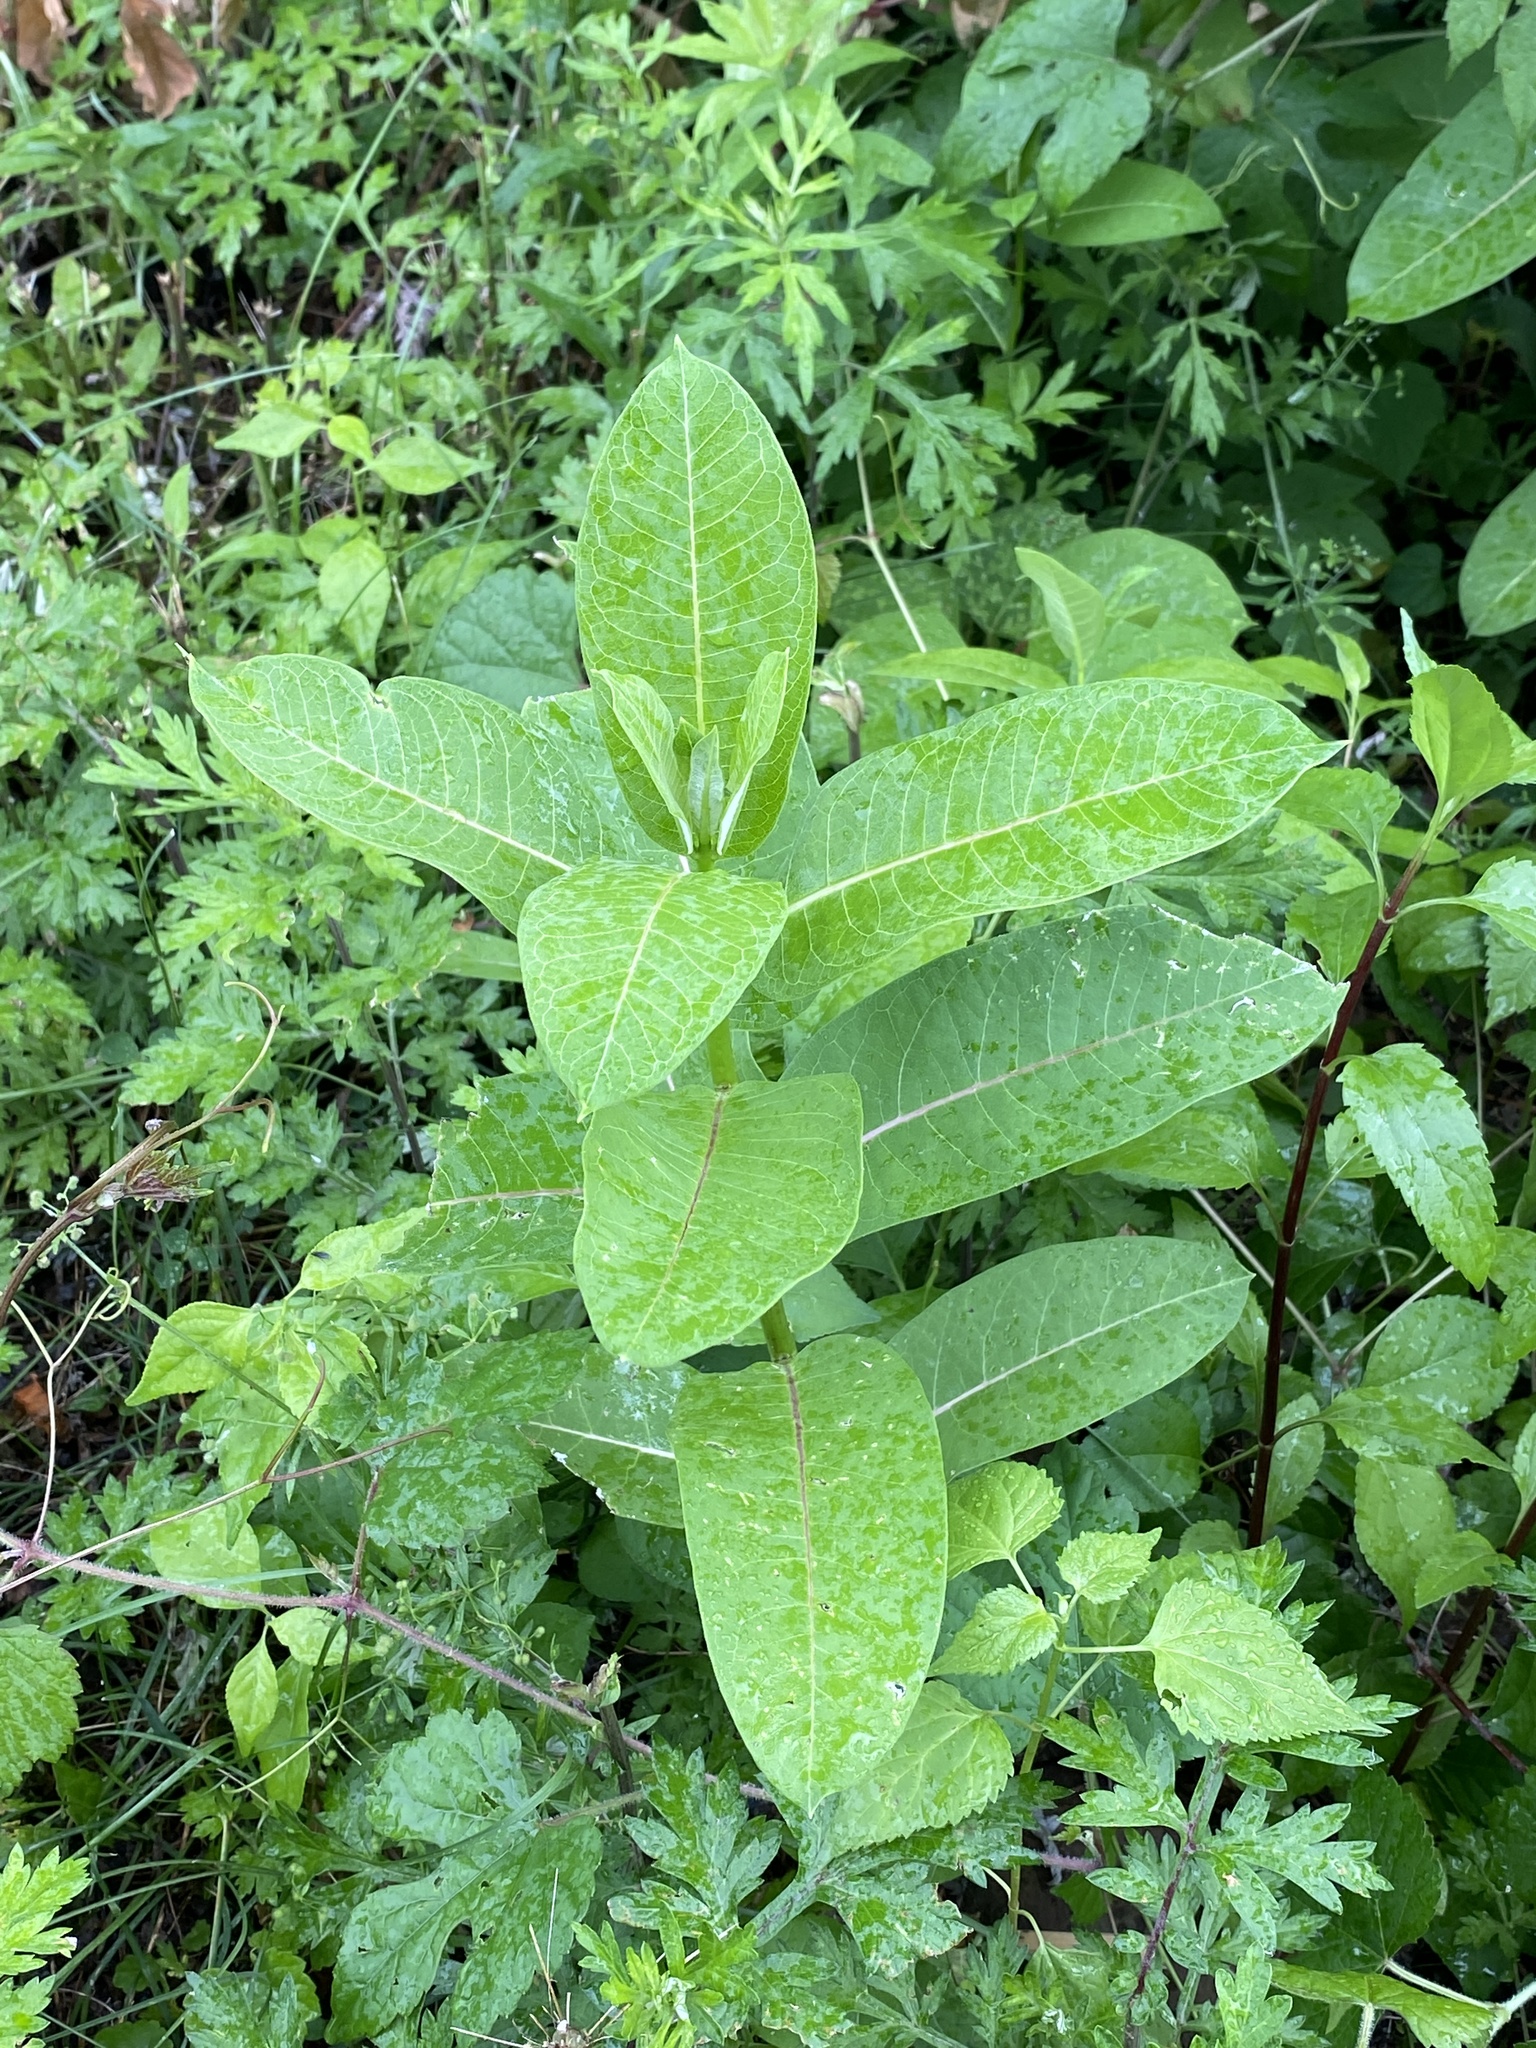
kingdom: Plantae
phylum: Tracheophyta
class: Magnoliopsida
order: Gentianales
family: Apocynaceae
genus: Asclepias
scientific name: Asclepias syriaca
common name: Common milkweed
